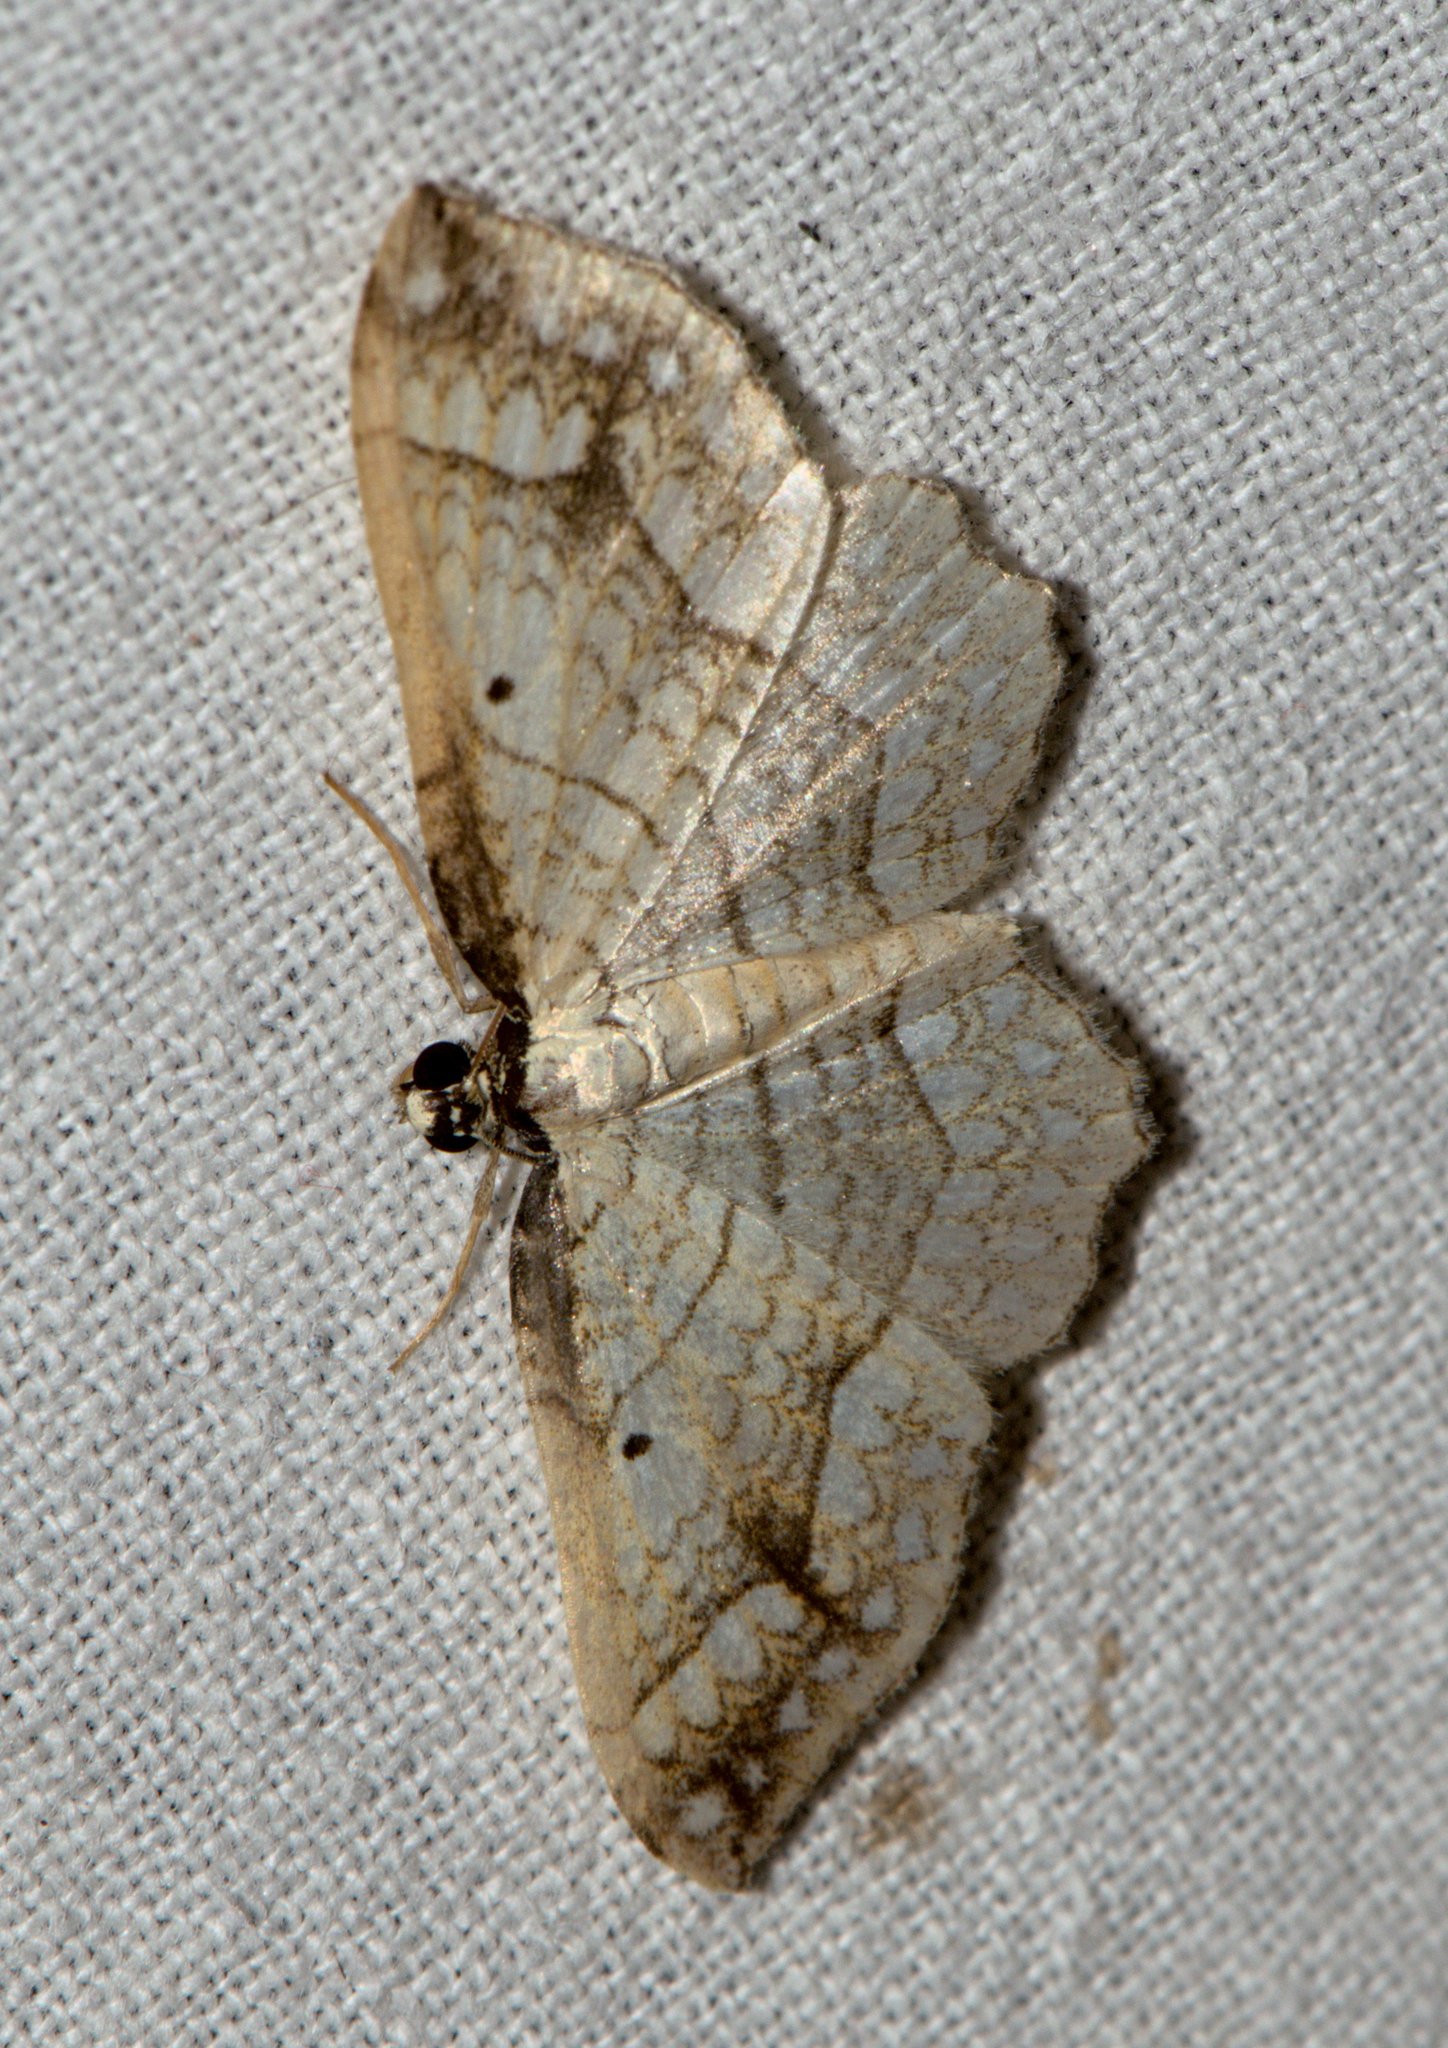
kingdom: Animalia
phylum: Arthropoda
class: Insecta
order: Lepidoptera
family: Geometridae
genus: Laciniodes
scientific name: Laciniodes plurilinearia
